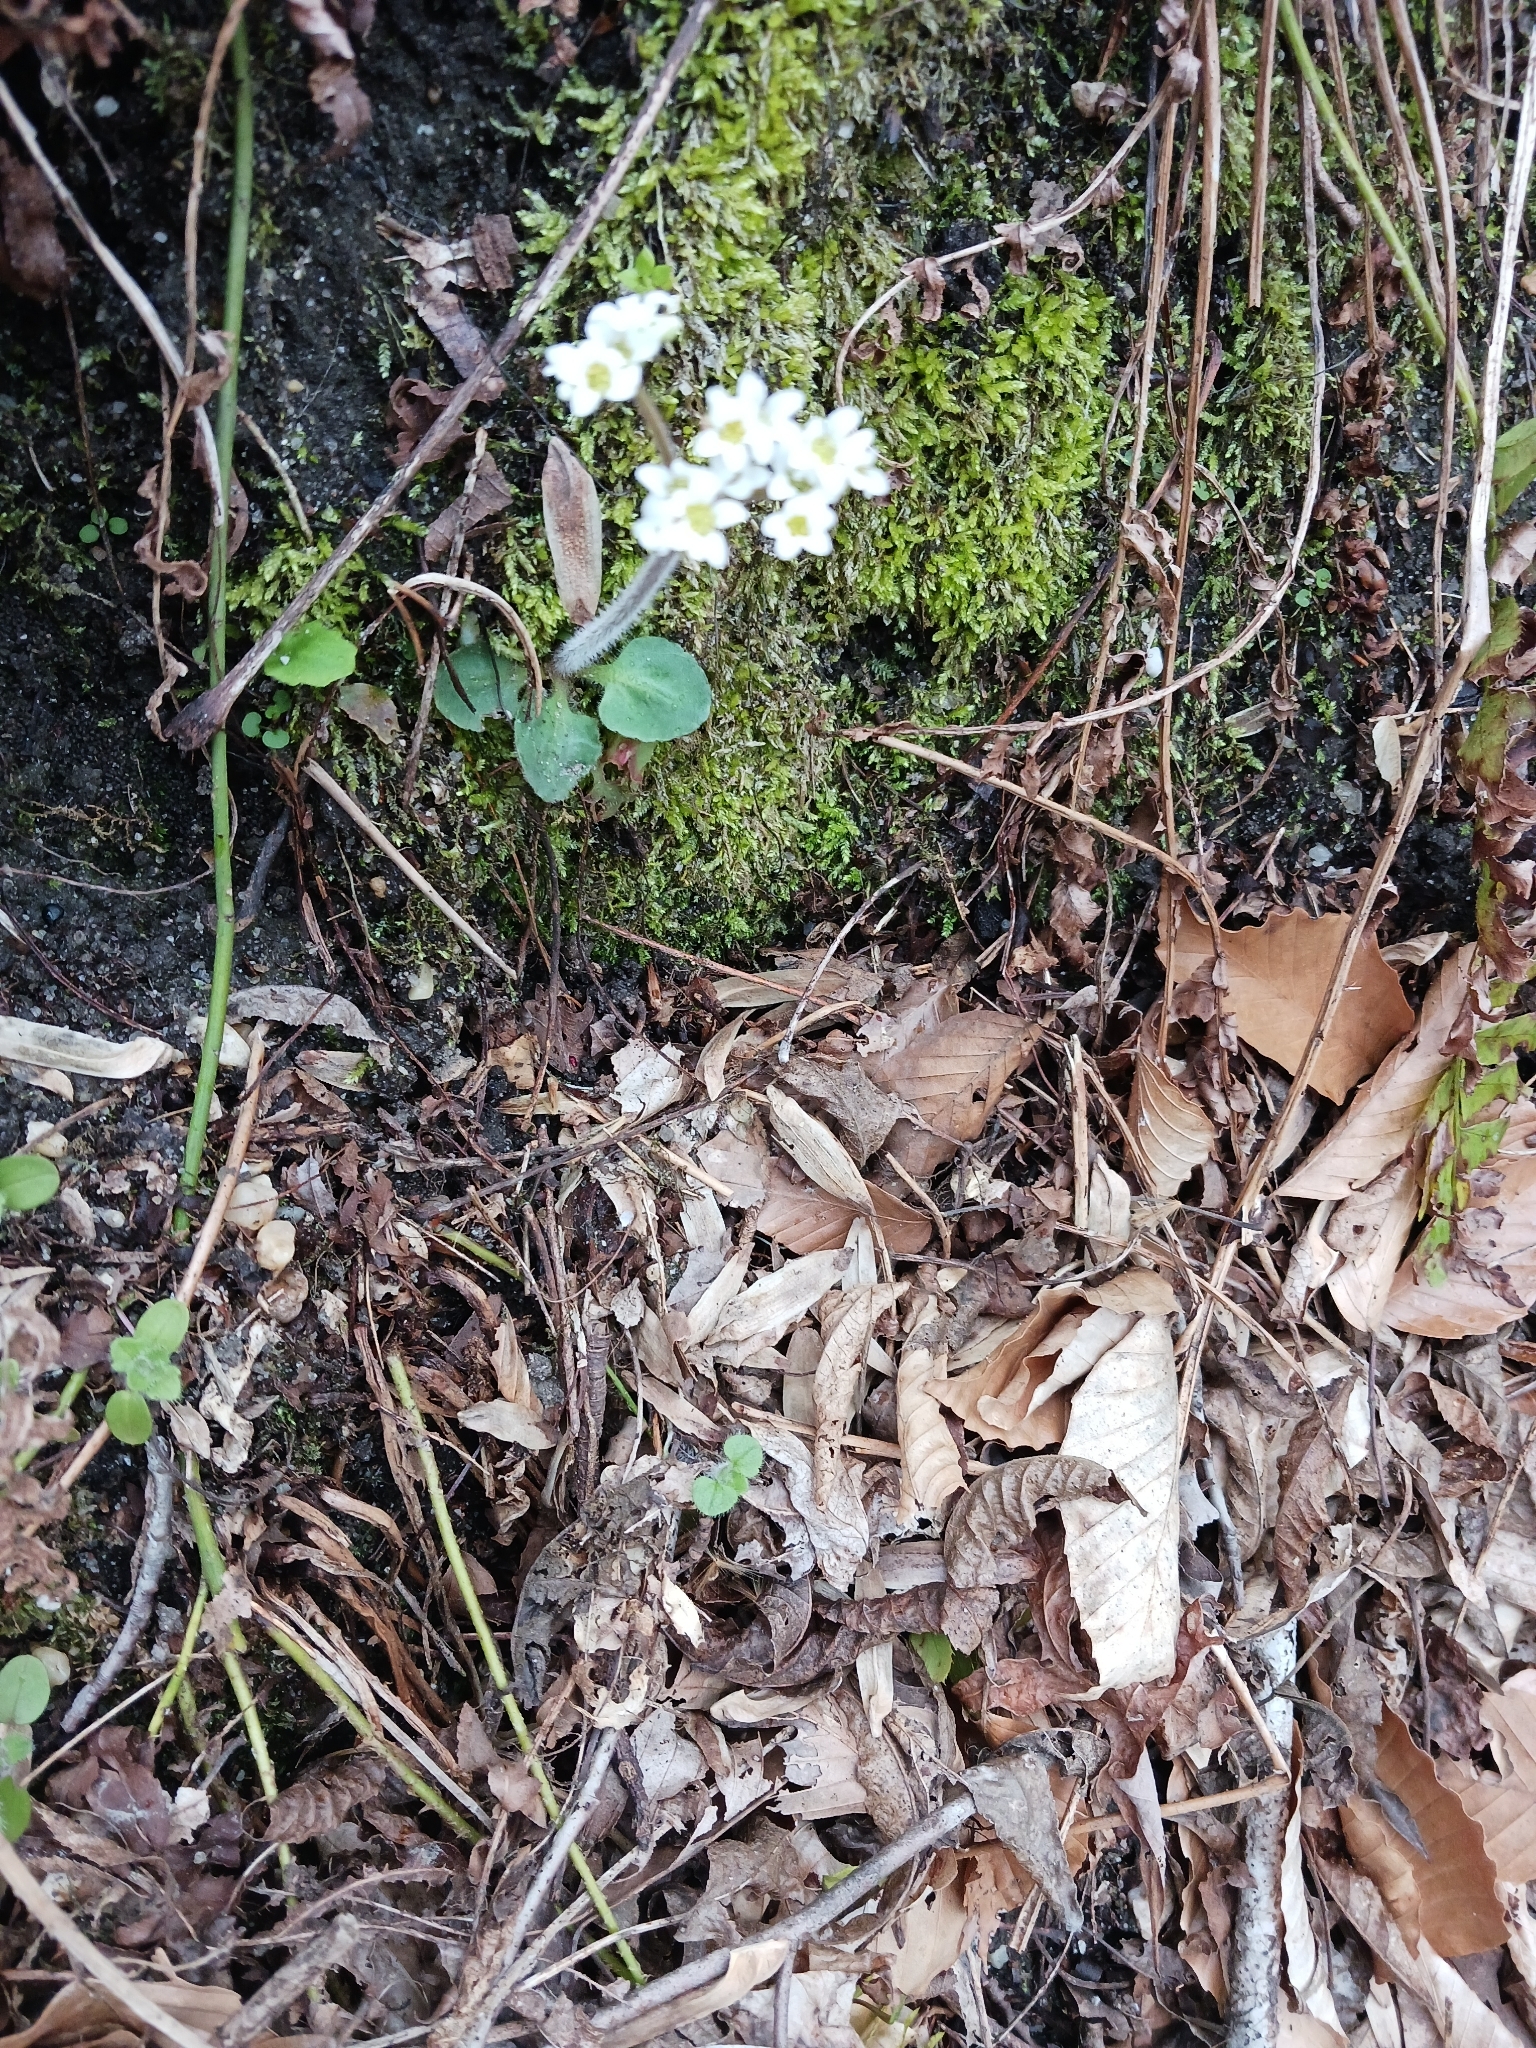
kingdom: Plantae
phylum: Tracheophyta
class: Magnoliopsida
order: Saxifragales
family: Saxifragaceae
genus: Micranthes
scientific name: Micranthes virginiensis
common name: Early saxifrage
